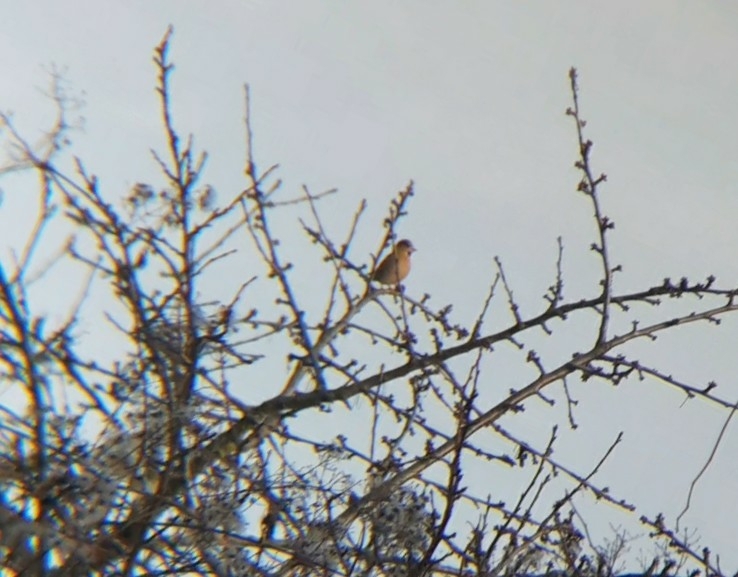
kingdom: Animalia
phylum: Chordata
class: Aves
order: Passeriformes
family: Fringillidae
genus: Coccothraustes
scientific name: Coccothraustes coccothraustes
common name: Hawfinch
